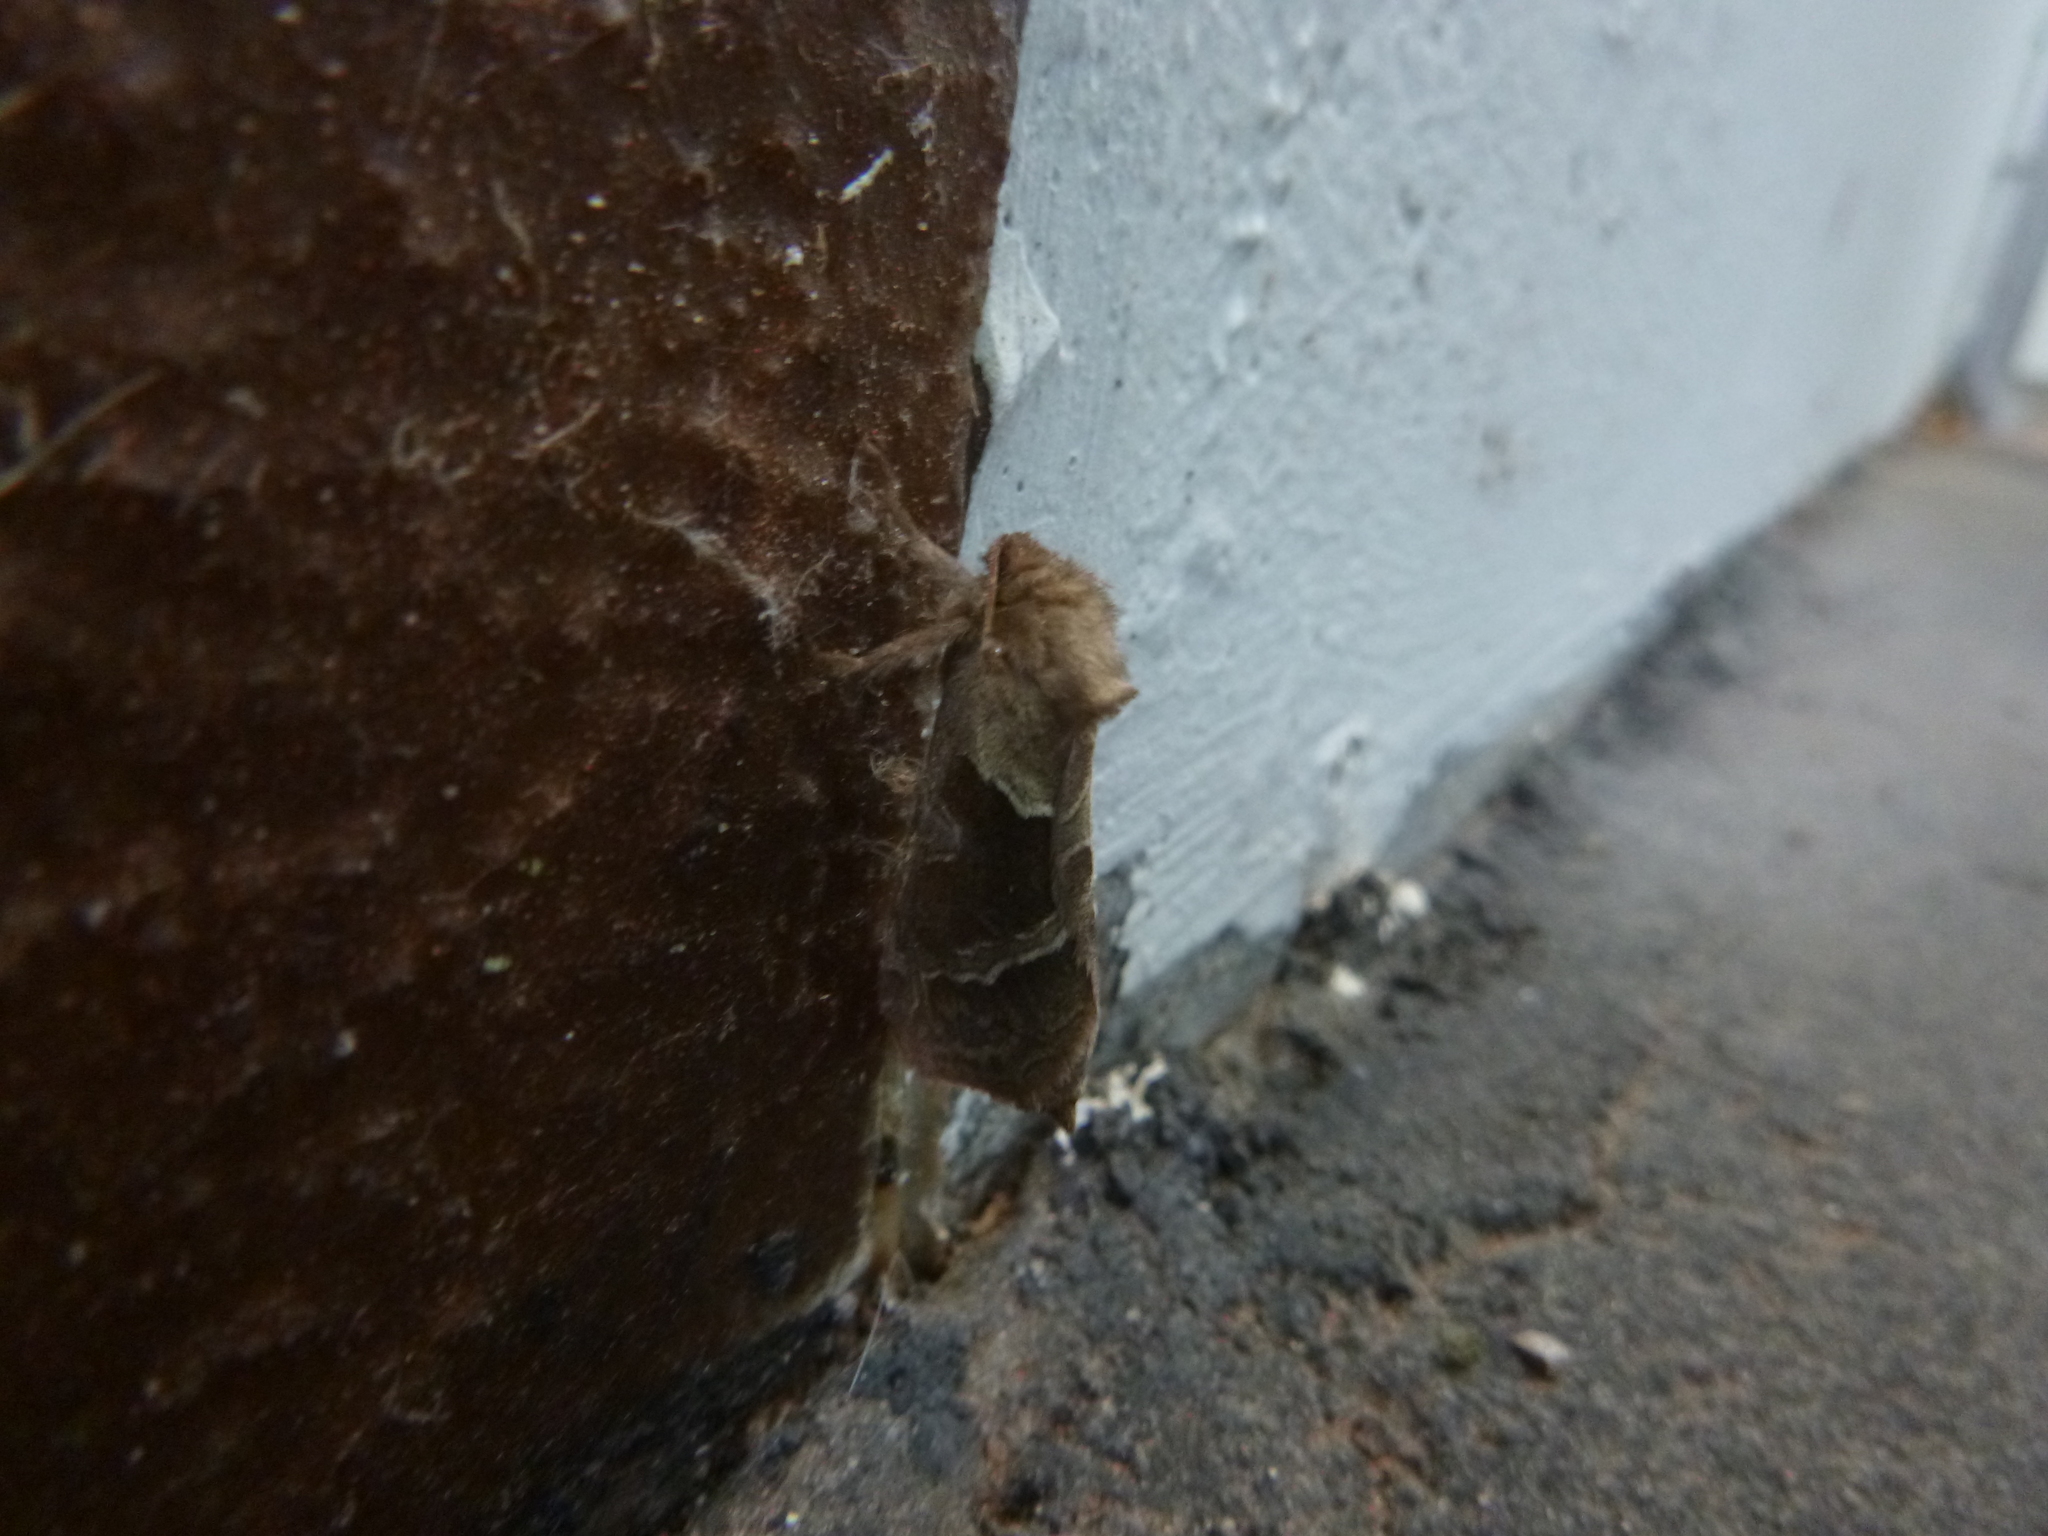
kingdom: Animalia
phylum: Arthropoda
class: Insecta
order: Lepidoptera
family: Hepialidae
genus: Triodia
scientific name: Triodia sylvina
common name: Orange swift
